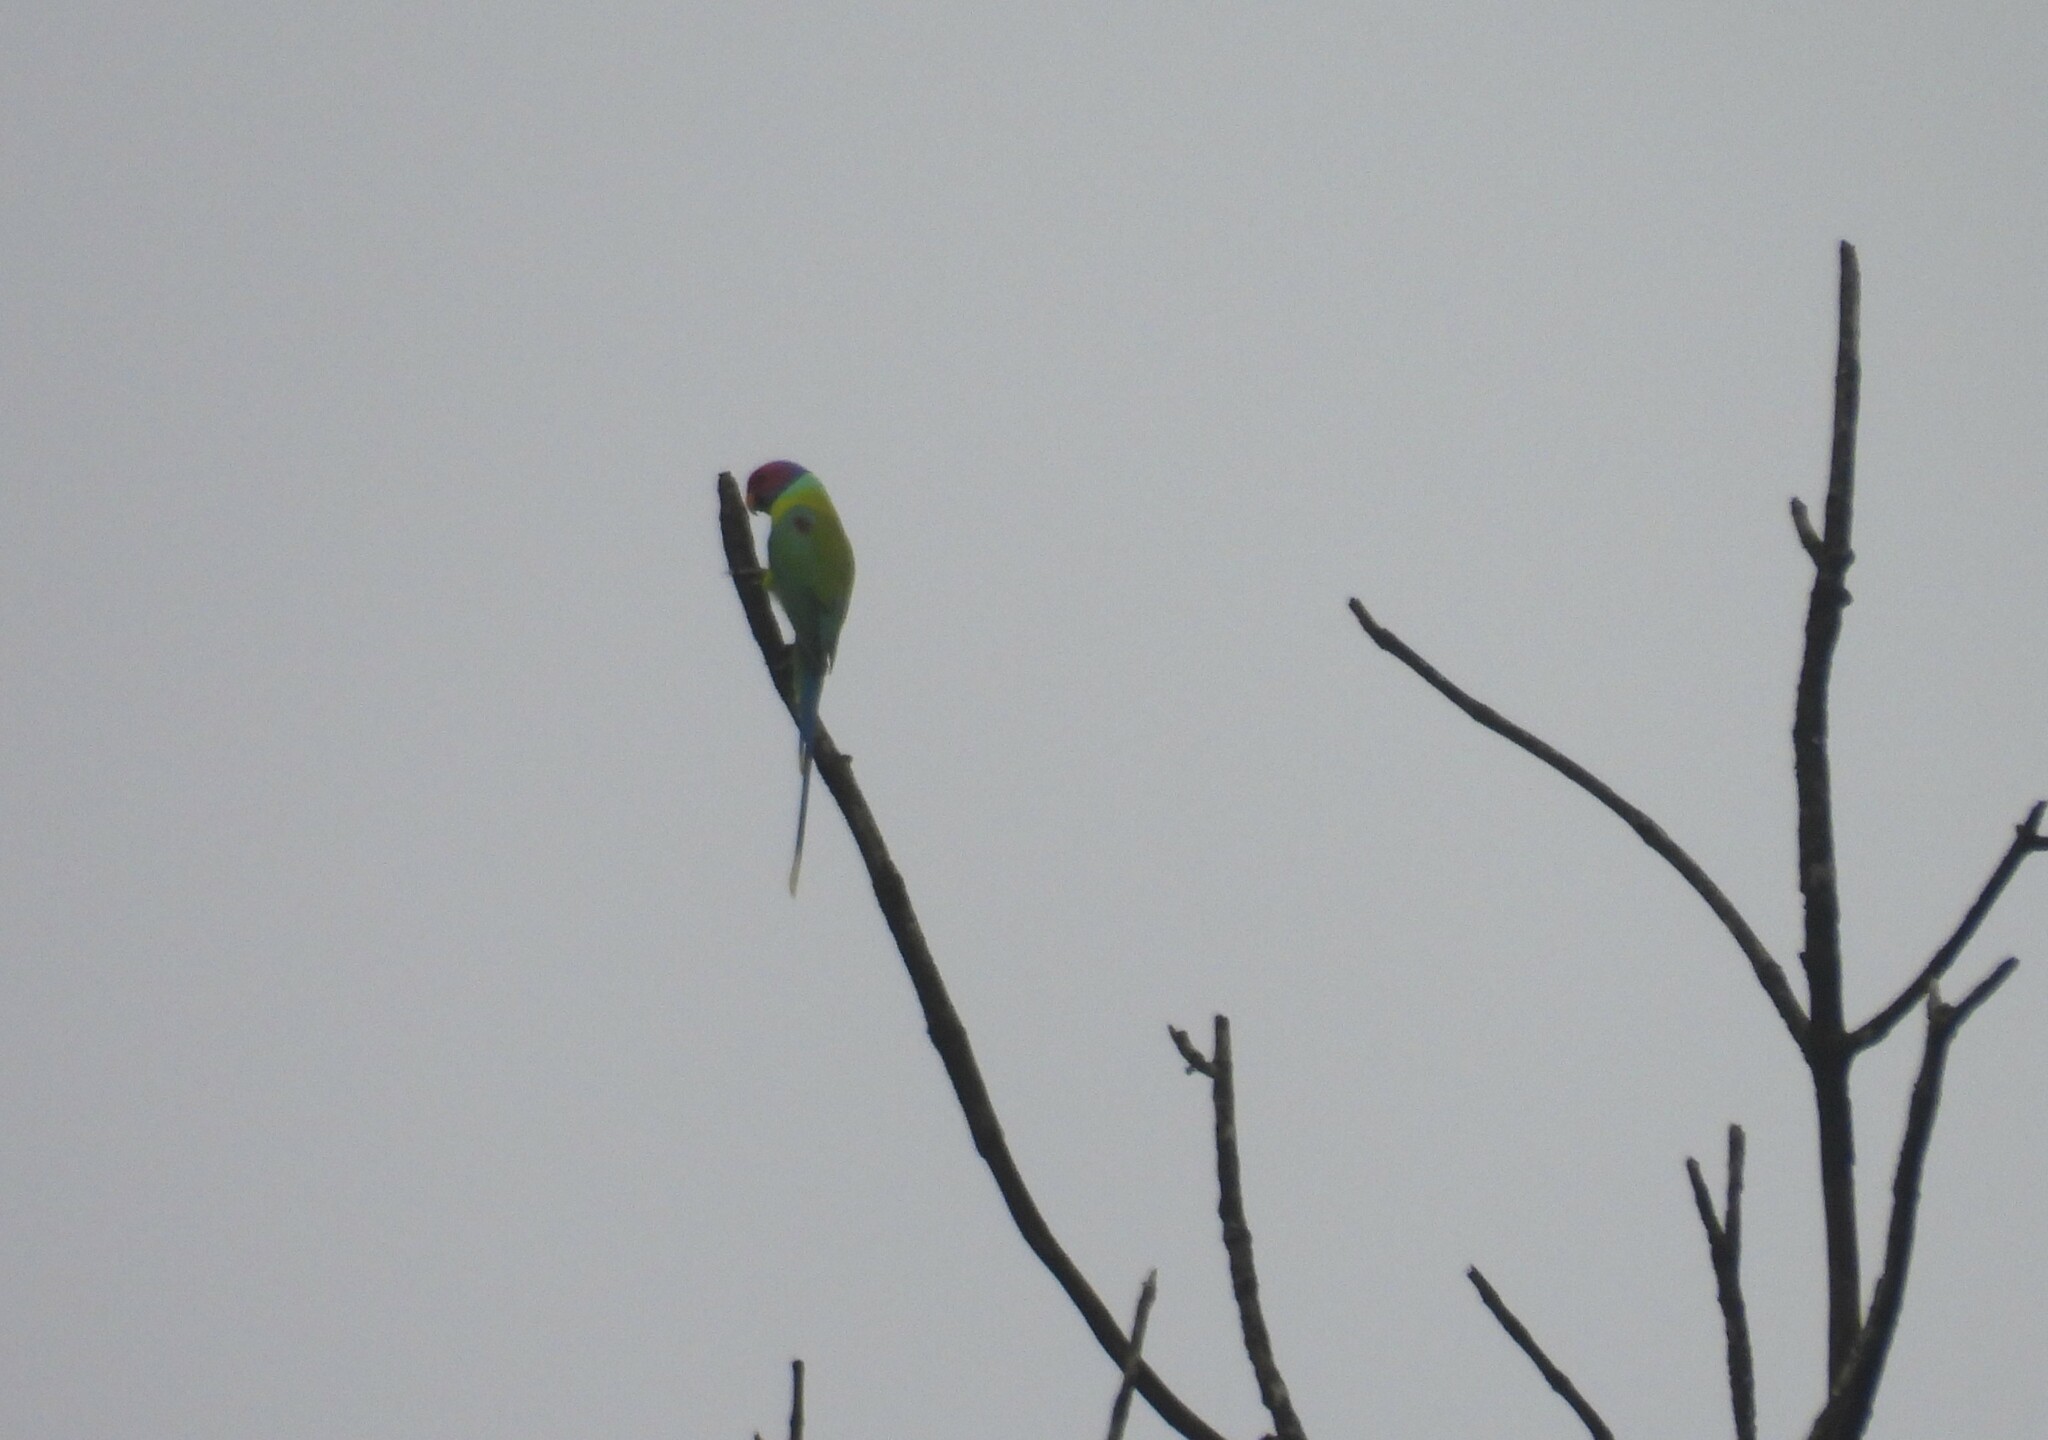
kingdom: Animalia
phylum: Chordata
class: Aves
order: Psittaciformes
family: Psittacidae
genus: Psittacula
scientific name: Psittacula cyanocephala
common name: Plum-headed parakeet
